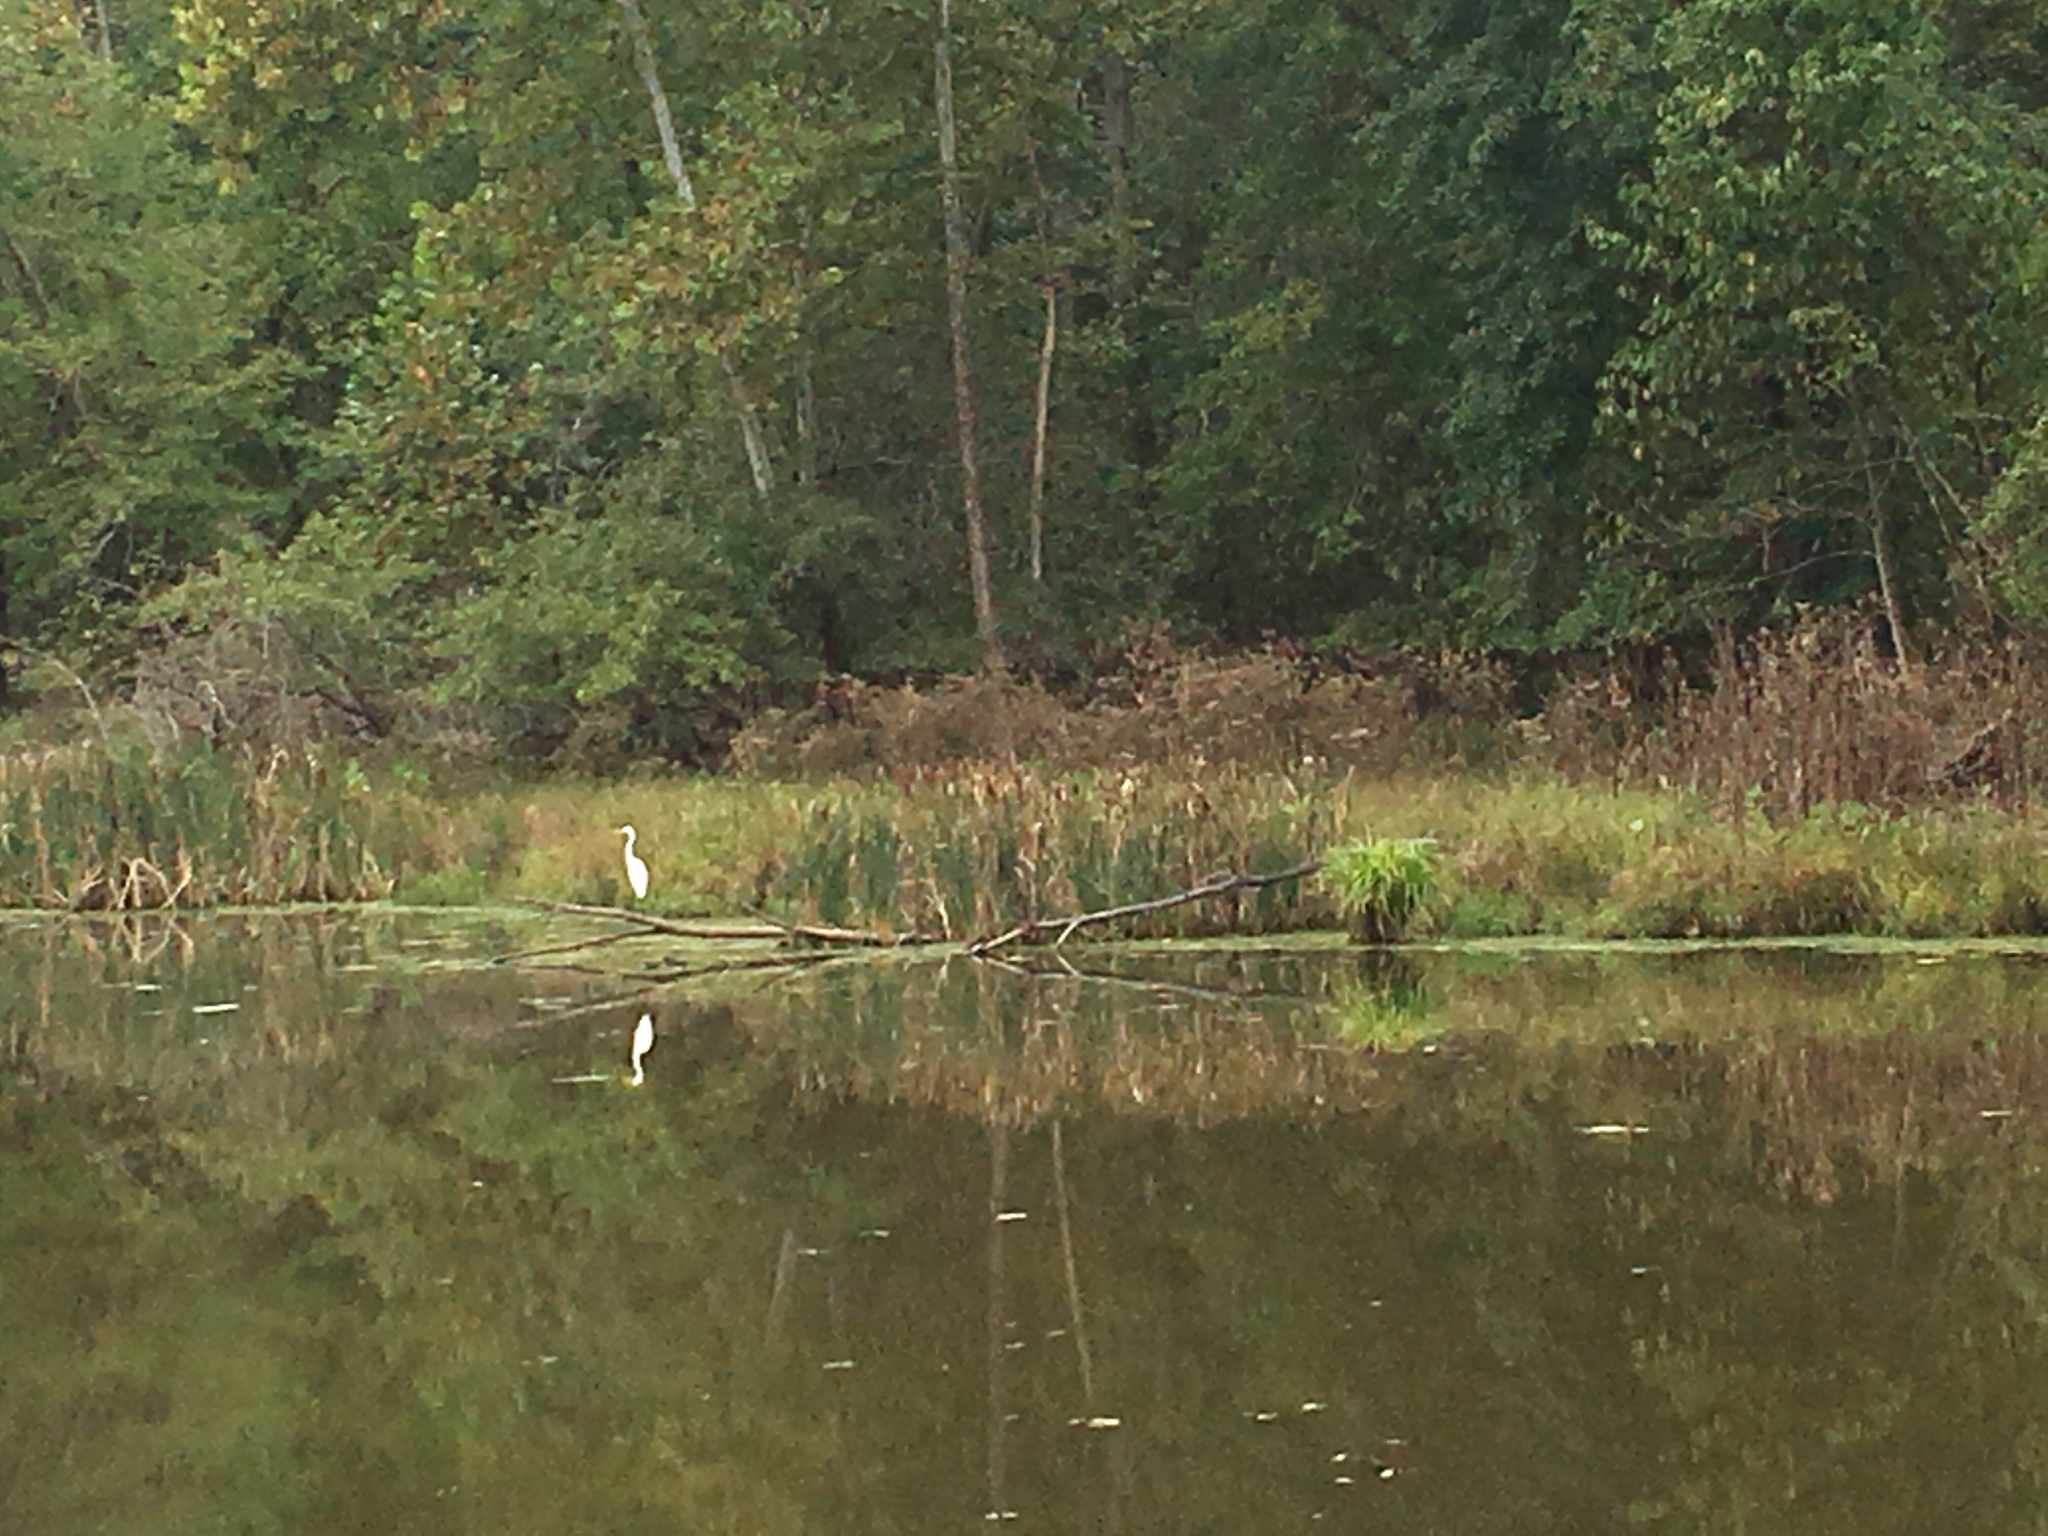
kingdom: Animalia
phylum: Chordata
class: Aves
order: Pelecaniformes
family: Ardeidae
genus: Ardea
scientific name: Ardea alba
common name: Great egret
